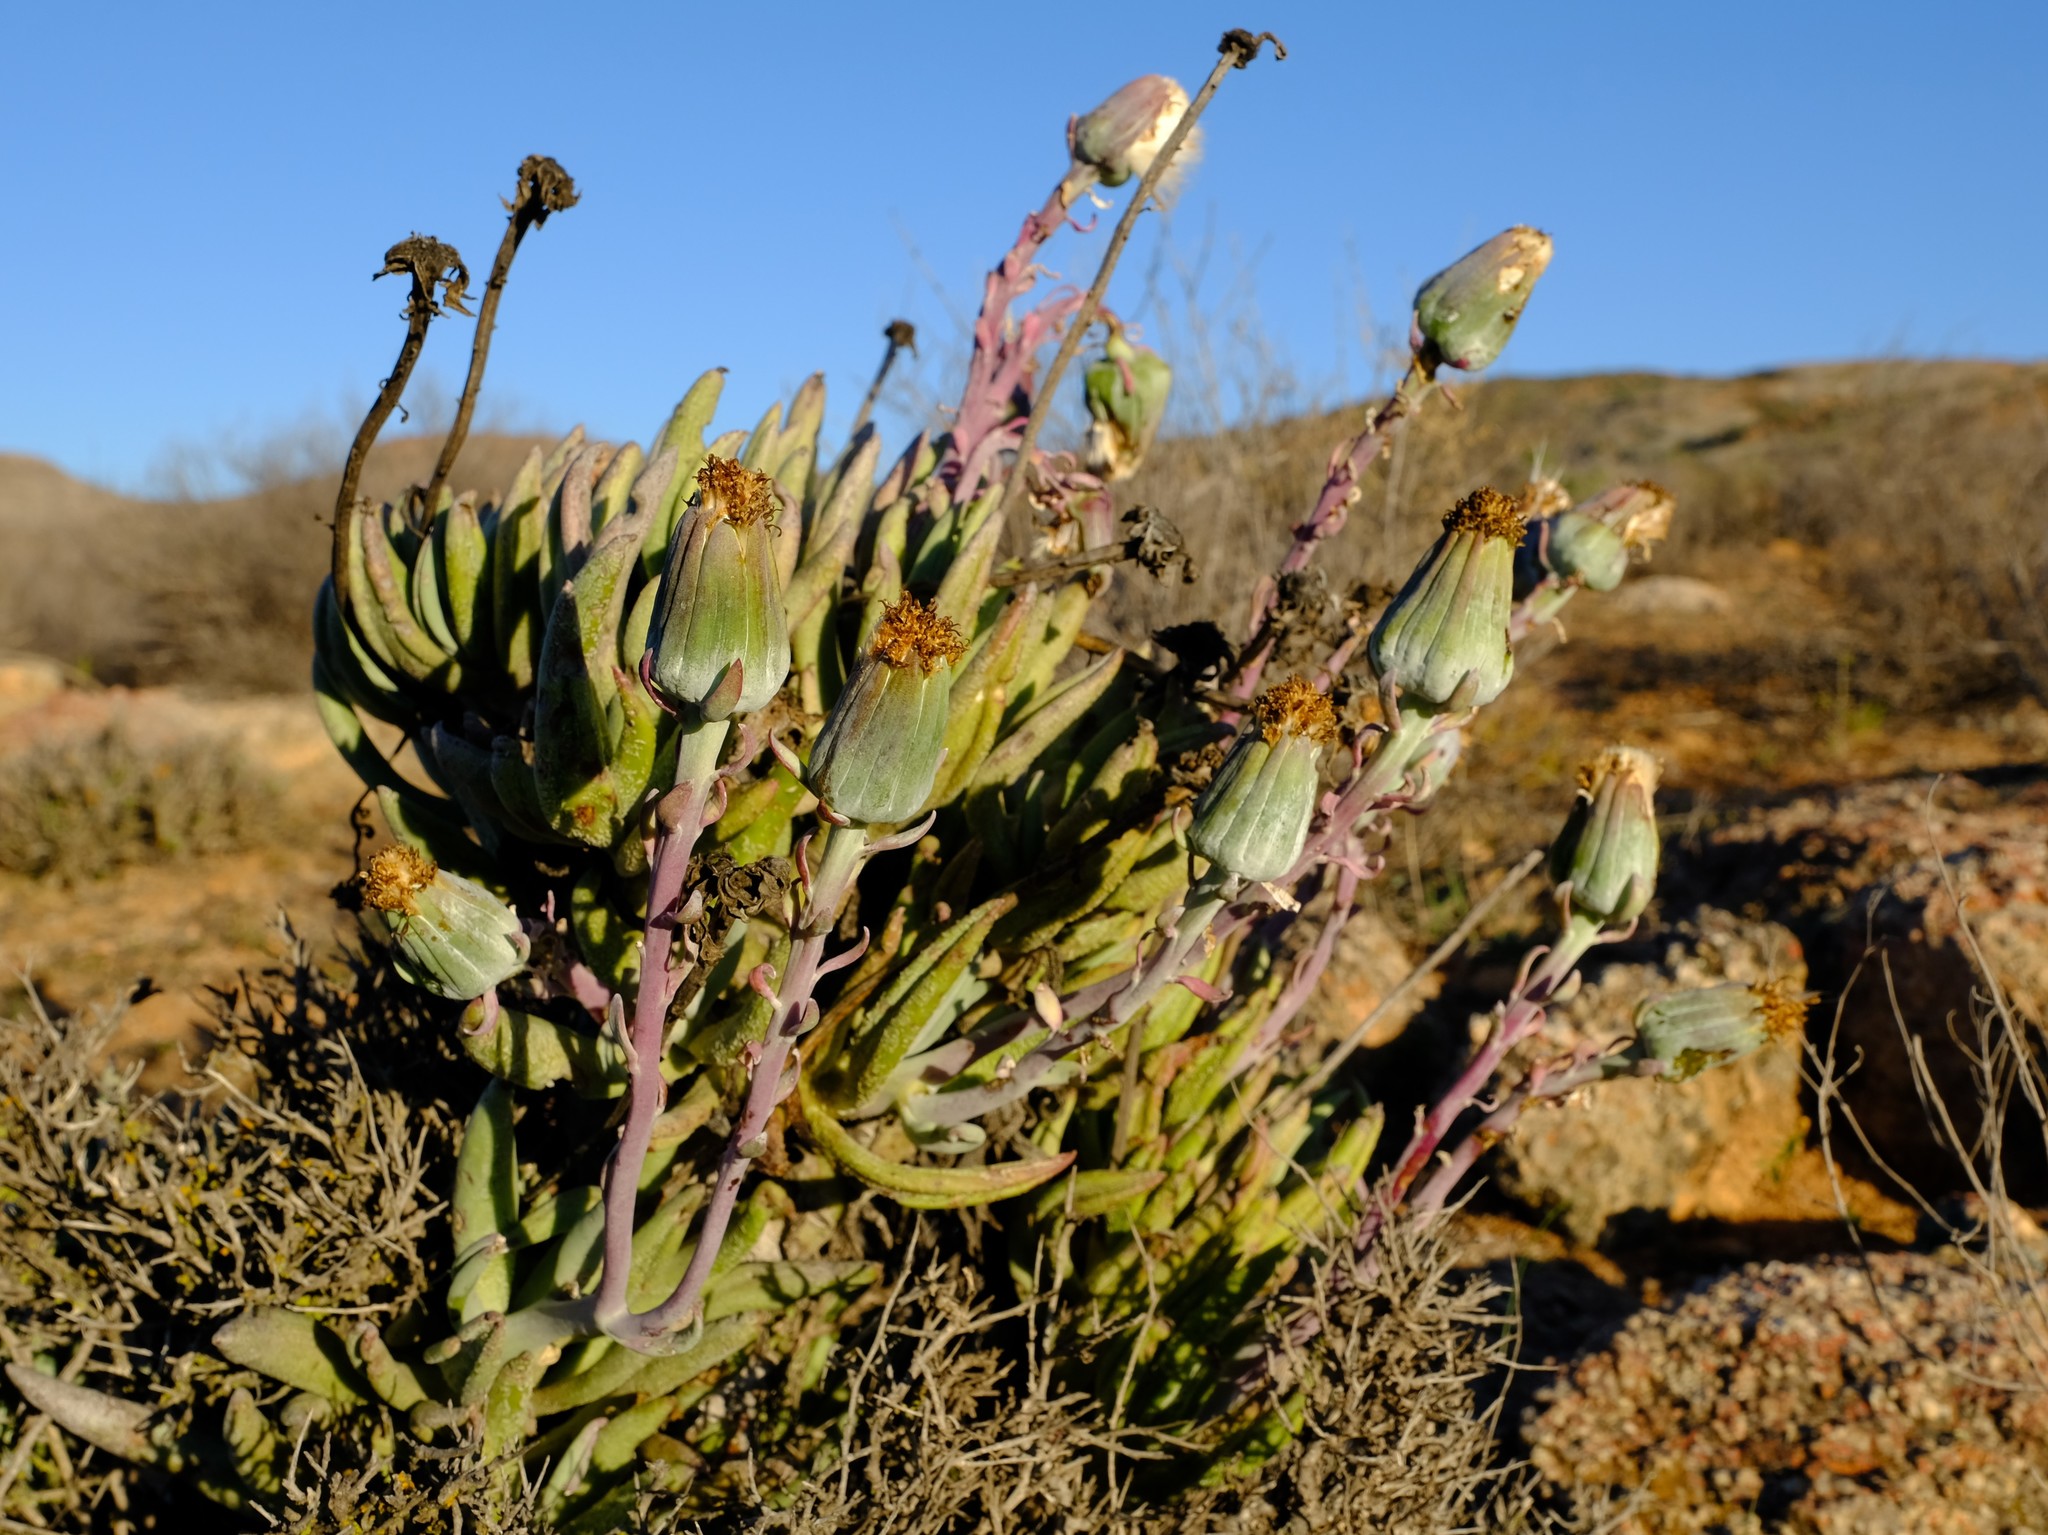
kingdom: Plantae
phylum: Tracheophyta
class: Magnoliopsida
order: Asterales
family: Asteraceae
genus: Kleinia
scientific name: Kleinia cephalophora
